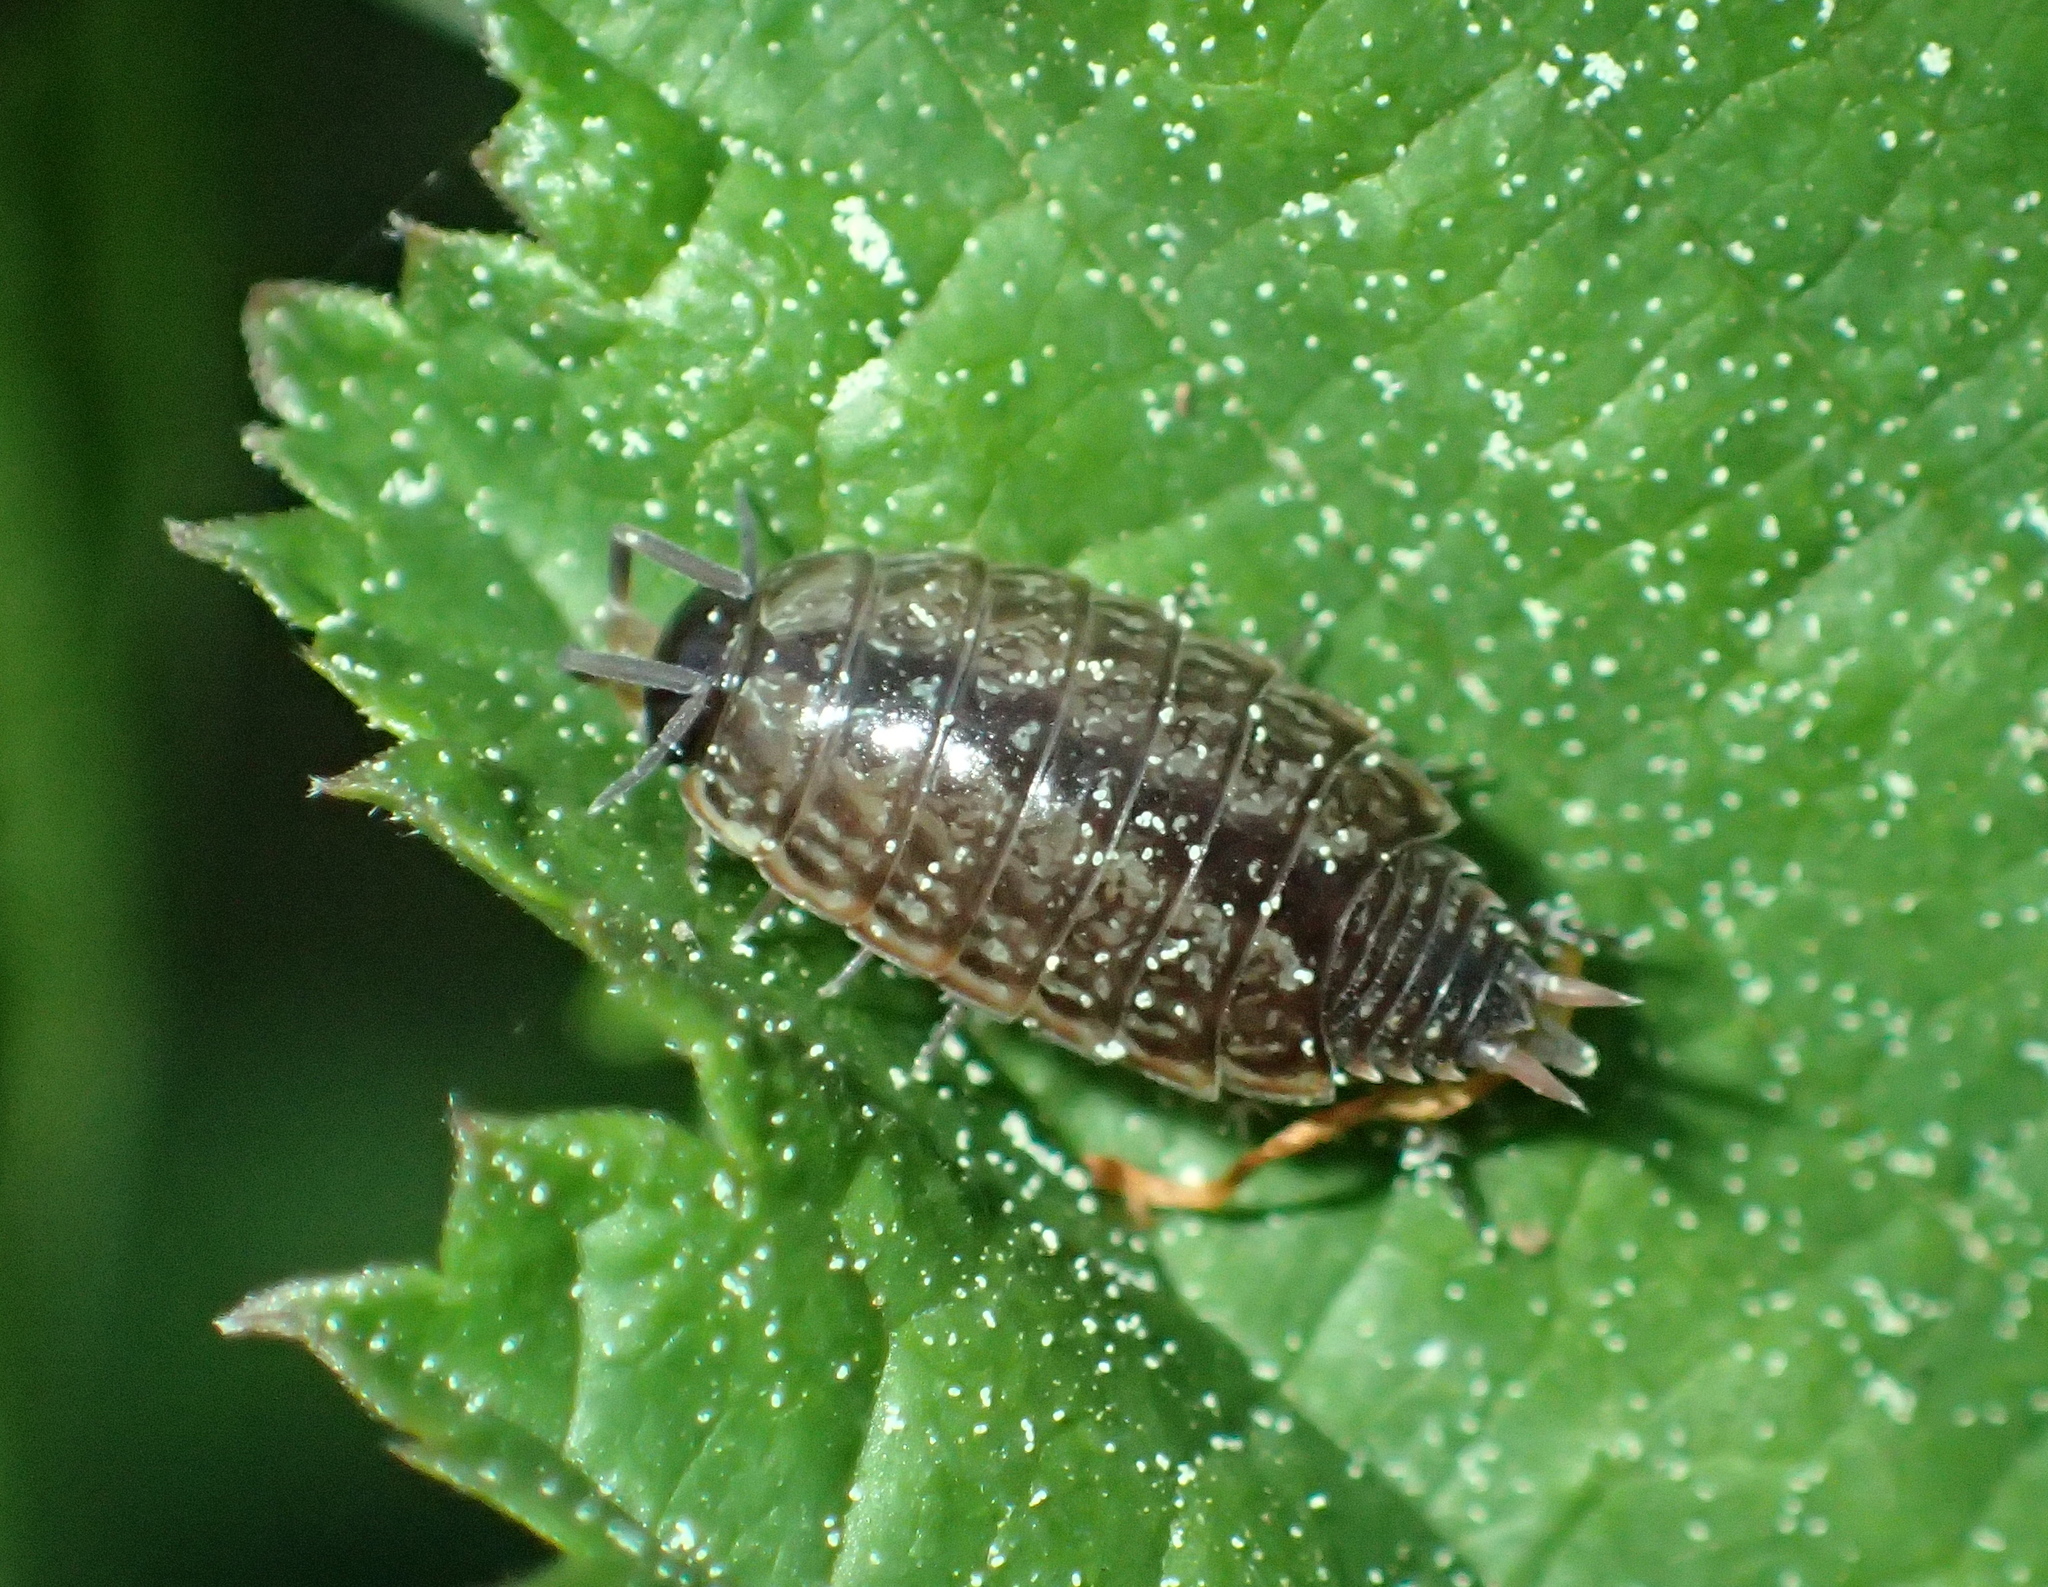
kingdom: Animalia
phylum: Arthropoda
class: Malacostraca
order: Isopoda
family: Philosciidae
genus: Philoscia
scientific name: Philoscia muscorum
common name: Common striped woodlouse
